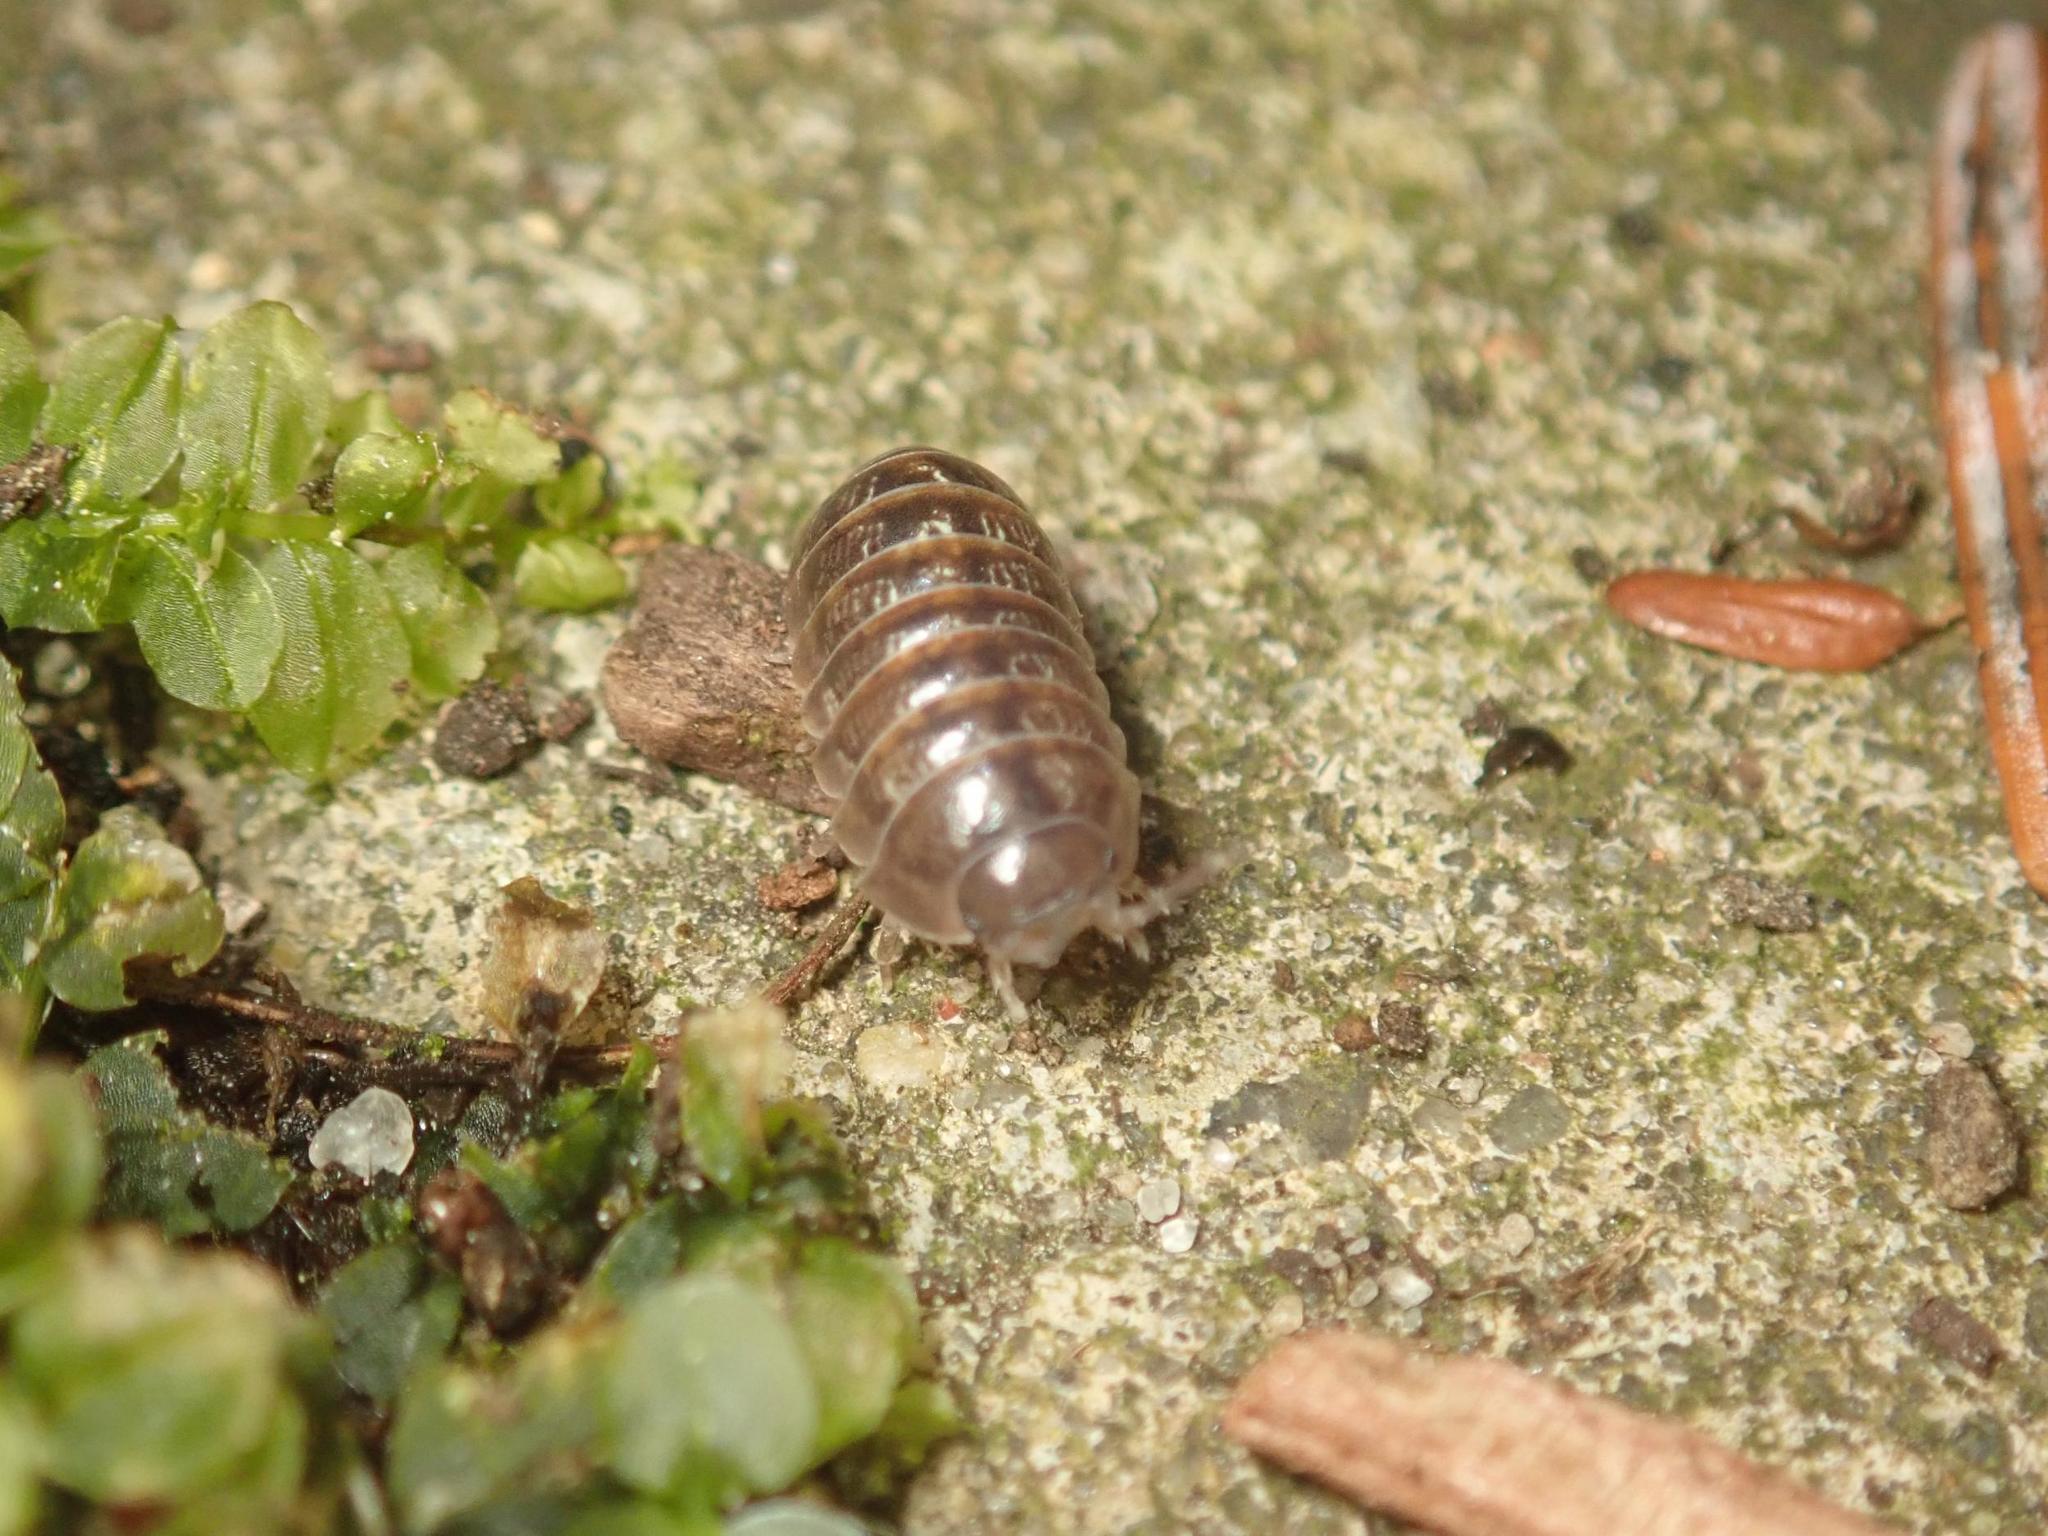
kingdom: Animalia
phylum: Arthropoda
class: Malacostraca
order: Isopoda
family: Armadillidiidae
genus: Armadillidium
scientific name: Armadillidium vulgare
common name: Common pill woodlouse
